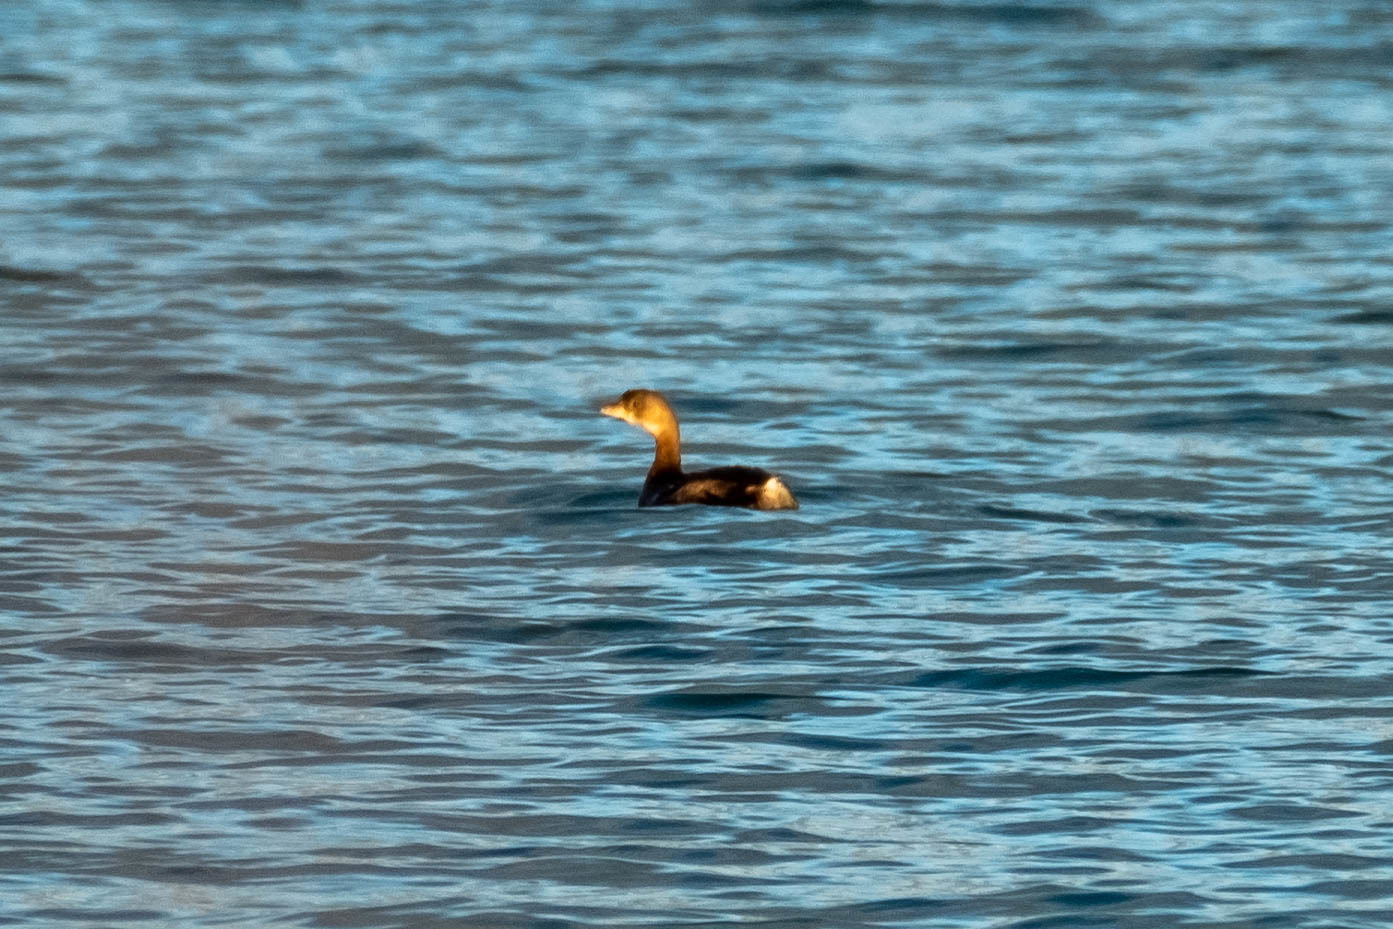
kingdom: Animalia
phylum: Chordata
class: Aves
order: Podicipediformes
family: Podicipedidae
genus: Podilymbus
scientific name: Podilymbus podiceps
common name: Pied-billed grebe
